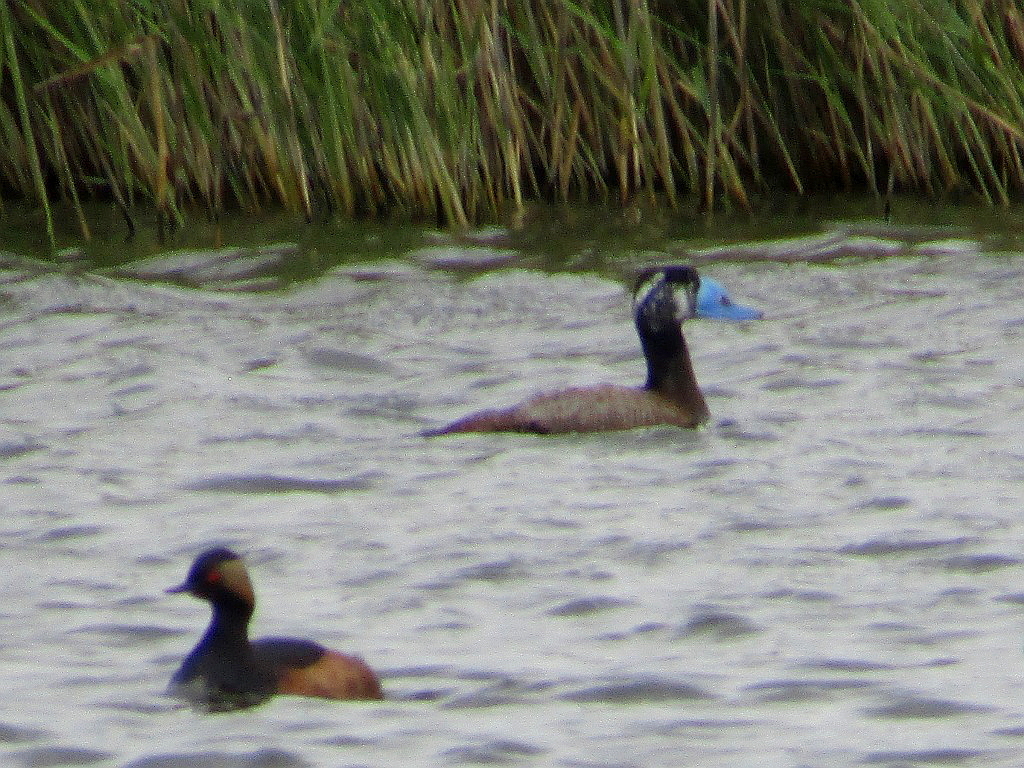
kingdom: Animalia
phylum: Chordata
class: Aves
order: Anseriformes
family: Anatidae
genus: Oxyura
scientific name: Oxyura leucocephala
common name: White-headed duck
